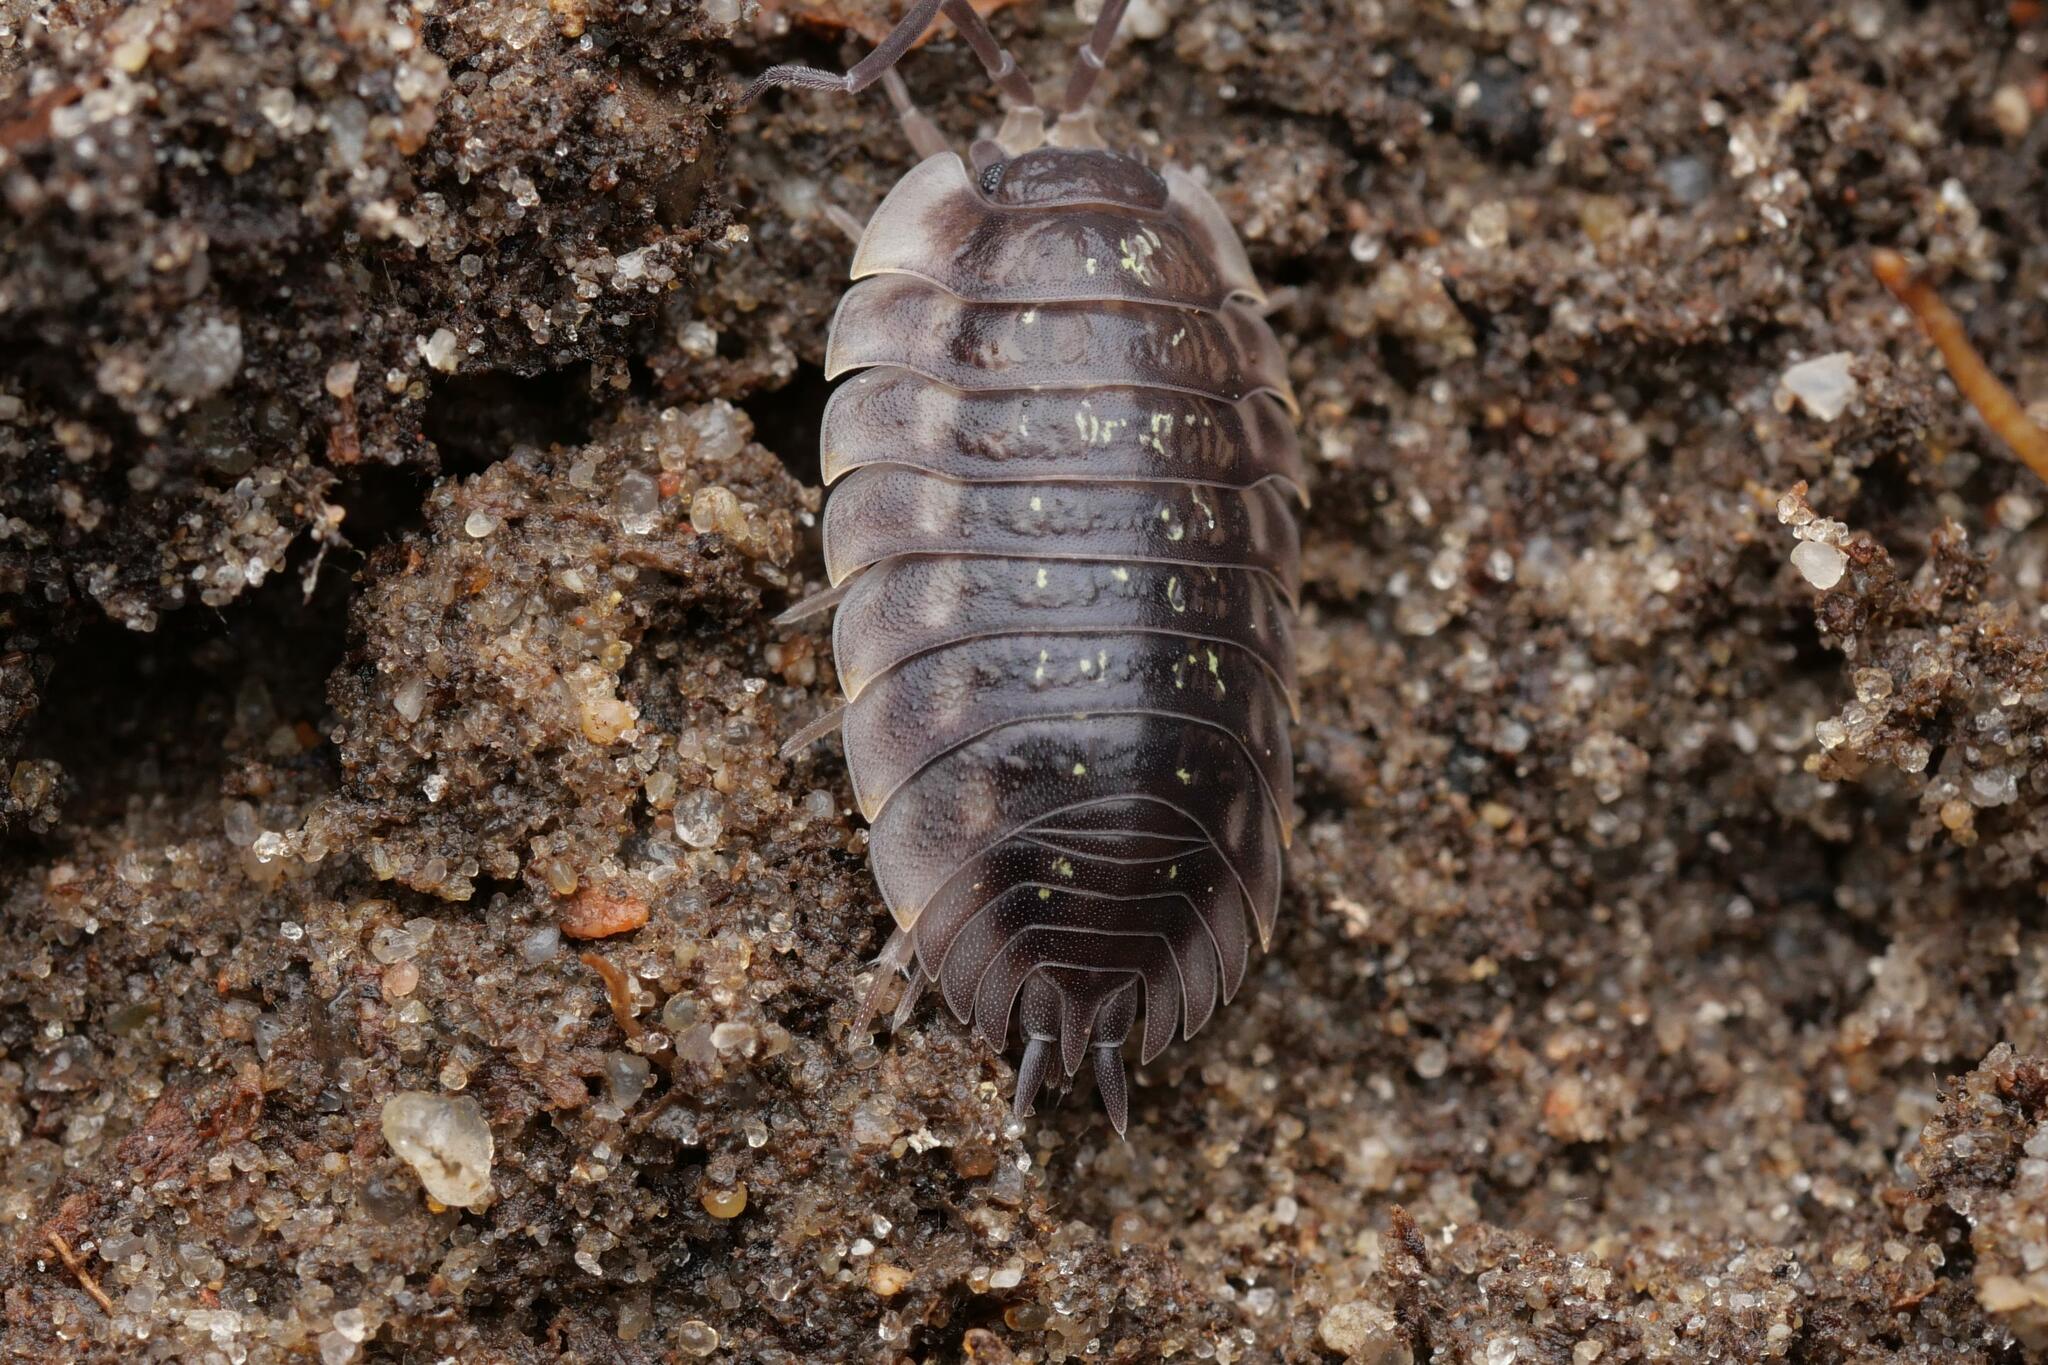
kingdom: Animalia
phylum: Arthropoda
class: Malacostraca
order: Isopoda
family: Oniscidae
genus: Oniscus
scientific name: Oniscus asellus
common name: Common shiny woodlouse
